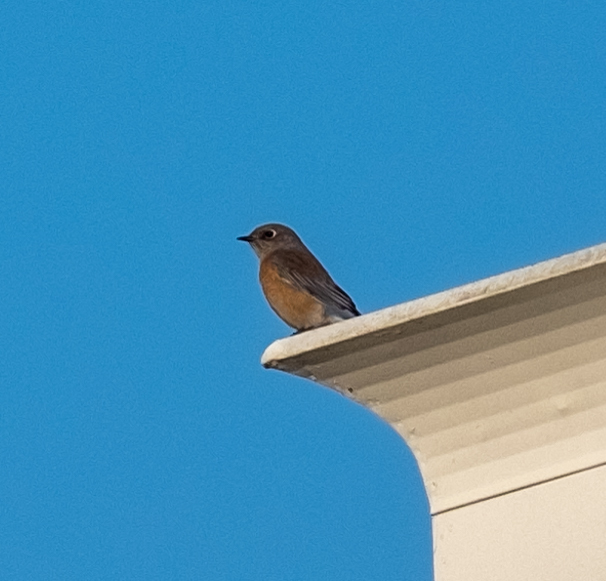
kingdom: Animalia
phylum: Chordata
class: Aves
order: Passeriformes
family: Turdidae
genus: Sialia
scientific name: Sialia mexicana
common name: Western bluebird
